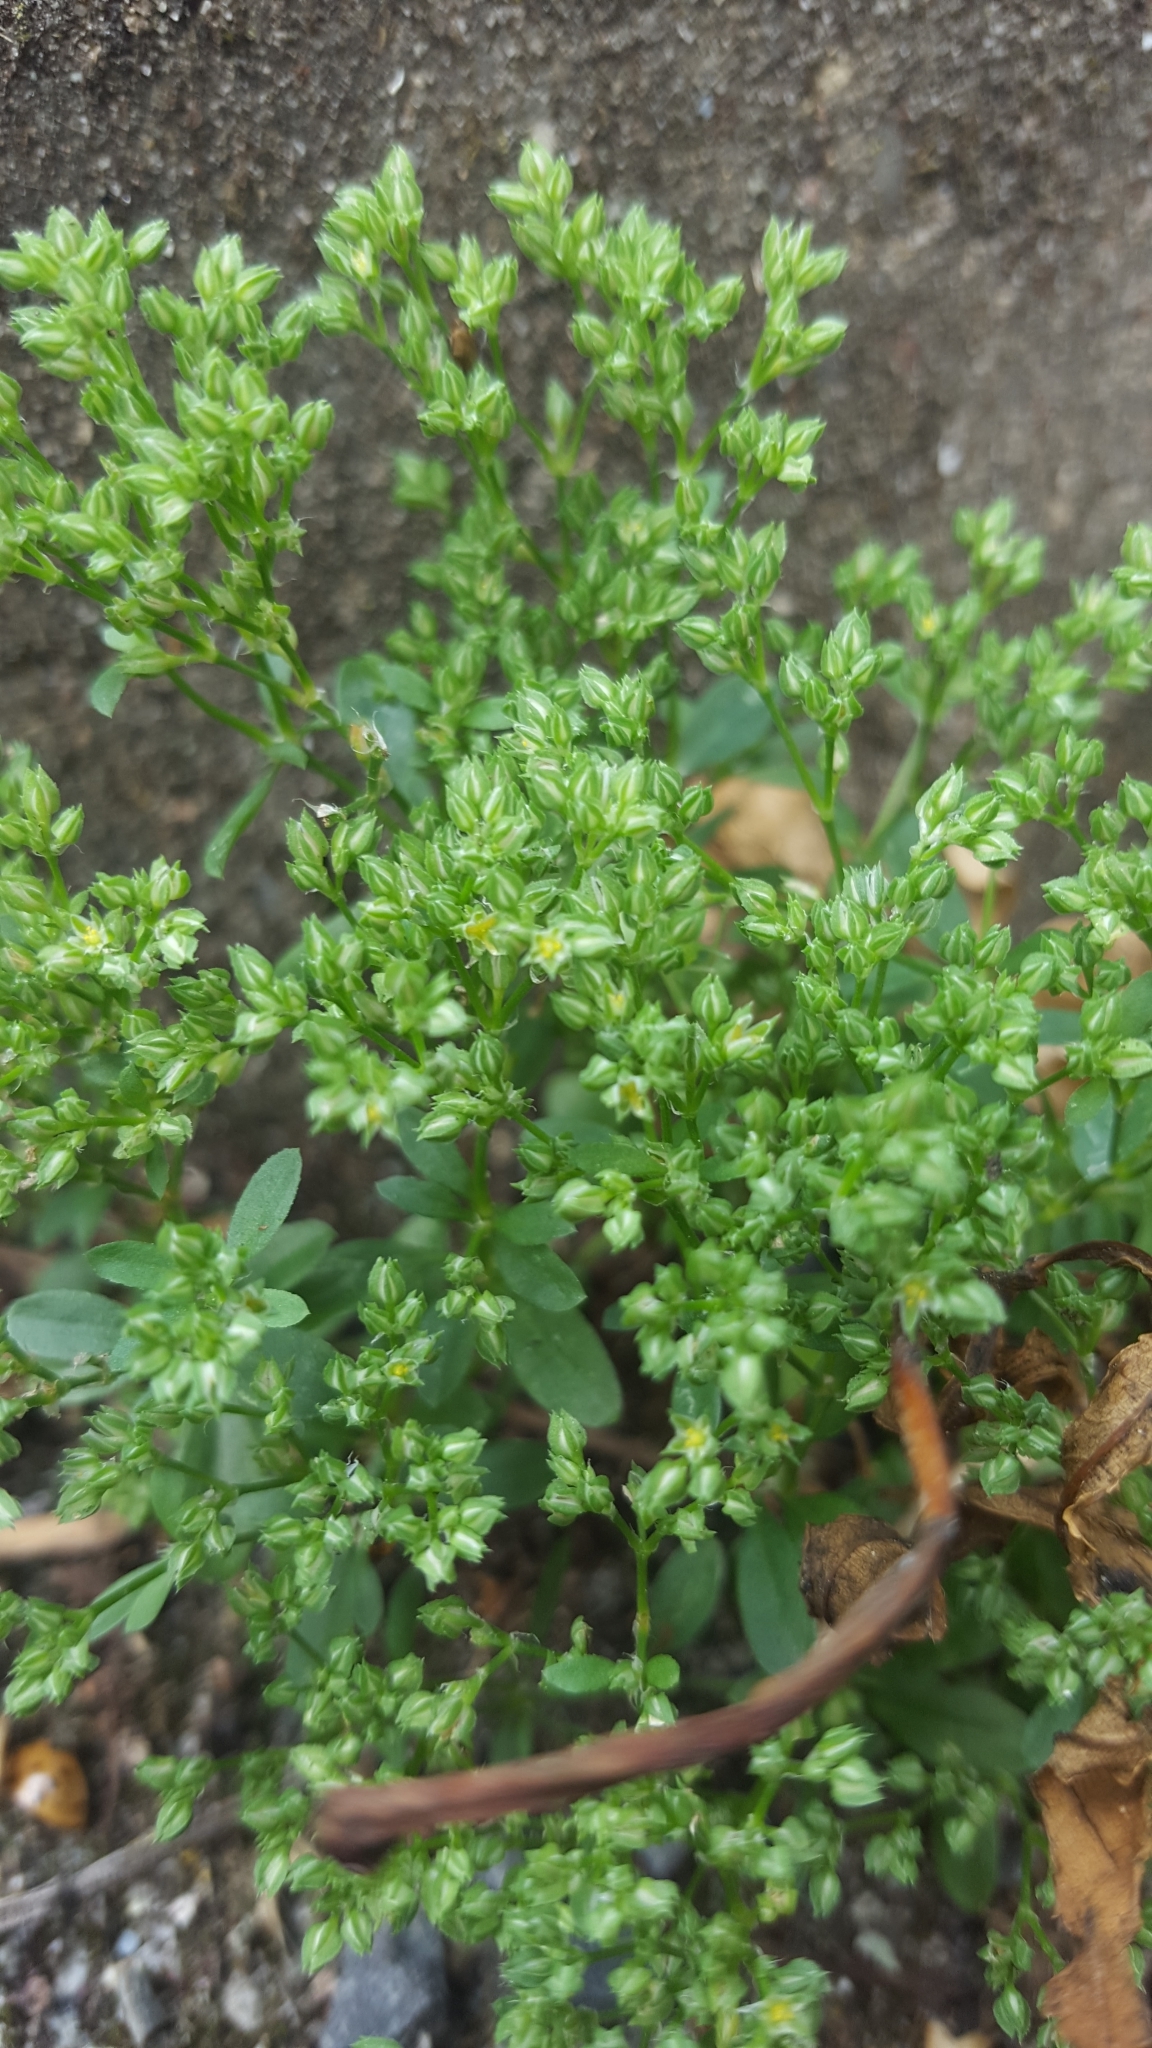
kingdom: Plantae
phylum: Tracheophyta
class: Magnoliopsida
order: Caryophyllales
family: Caryophyllaceae
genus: Polycarpon
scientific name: Polycarpon tetraphyllum
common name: Four-leaved all-seed
